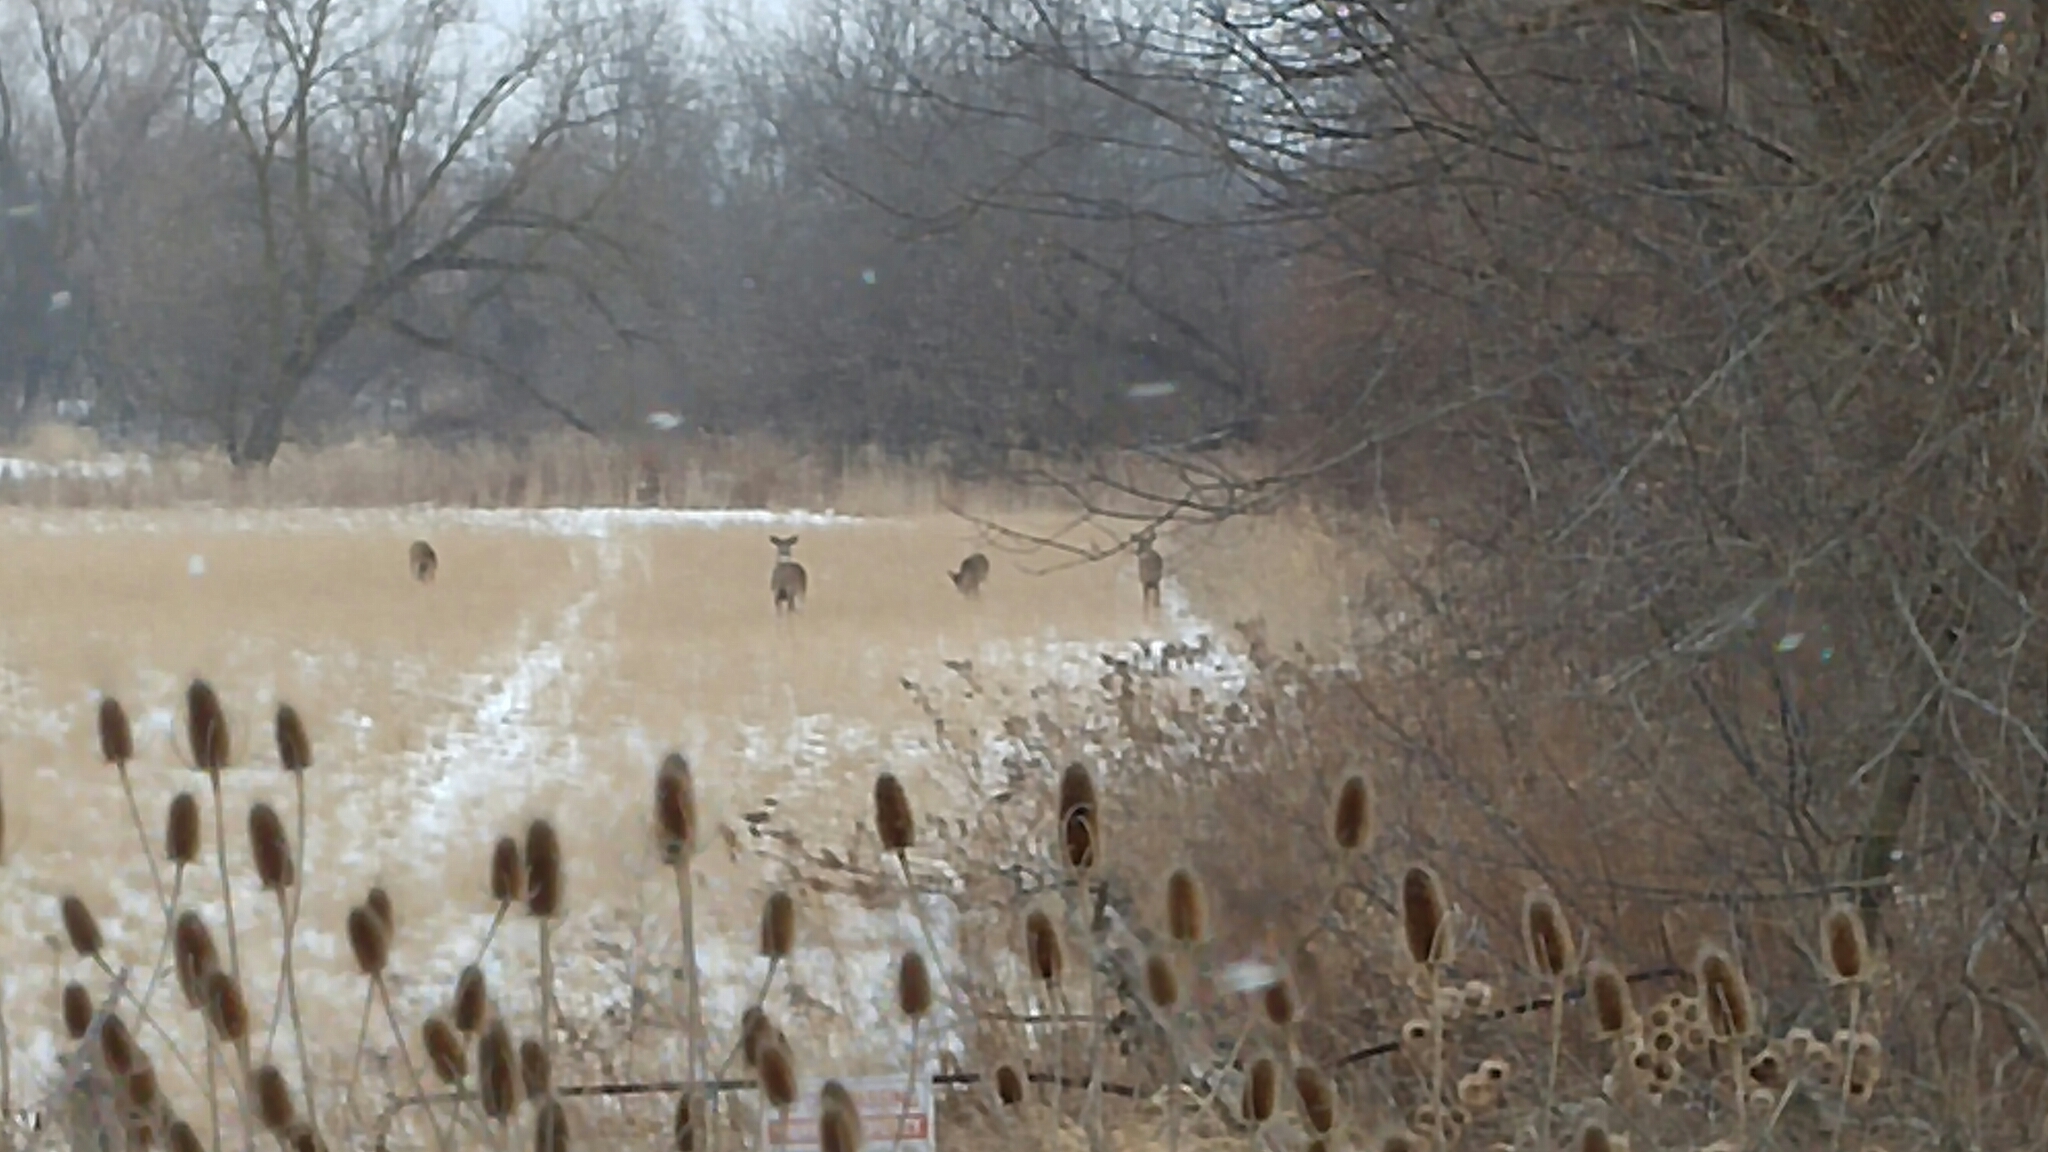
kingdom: Animalia
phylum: Chordata
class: Mammalia
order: Artiodactyla
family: Cervidae
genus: Odocoileus
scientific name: Odocoileus virginianus
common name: White-tailed deer
